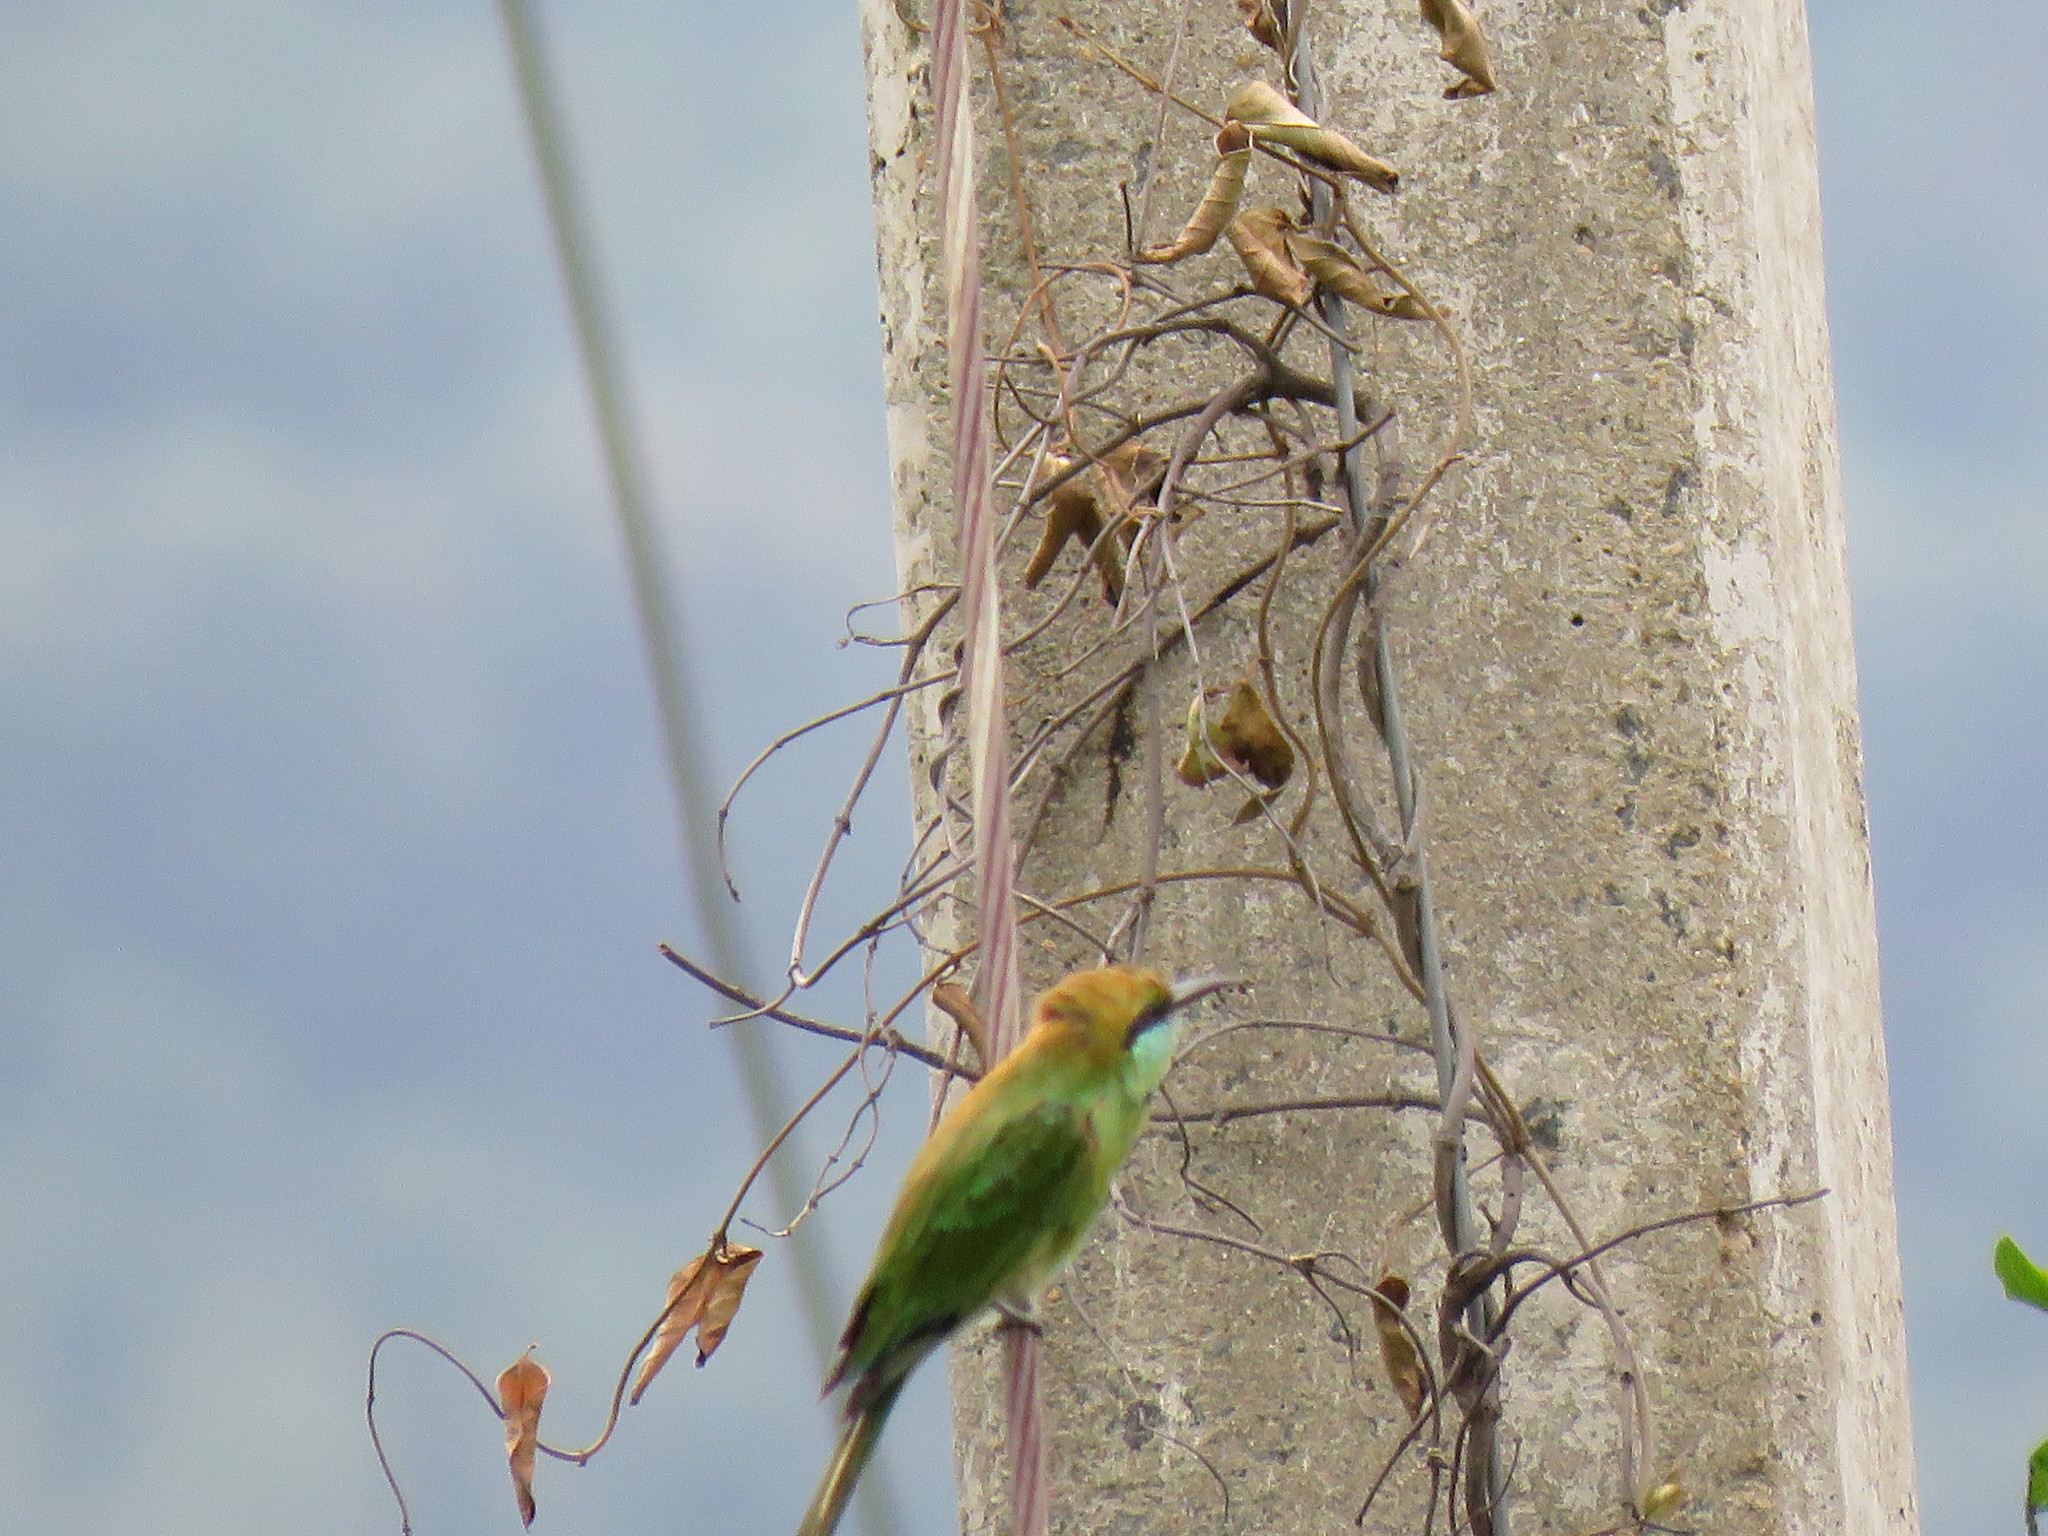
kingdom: Animalia
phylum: Chordata
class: Aves
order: Coraciiformes
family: Meropidae
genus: Merops
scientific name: Merops orientalis
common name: Green bee-eater
